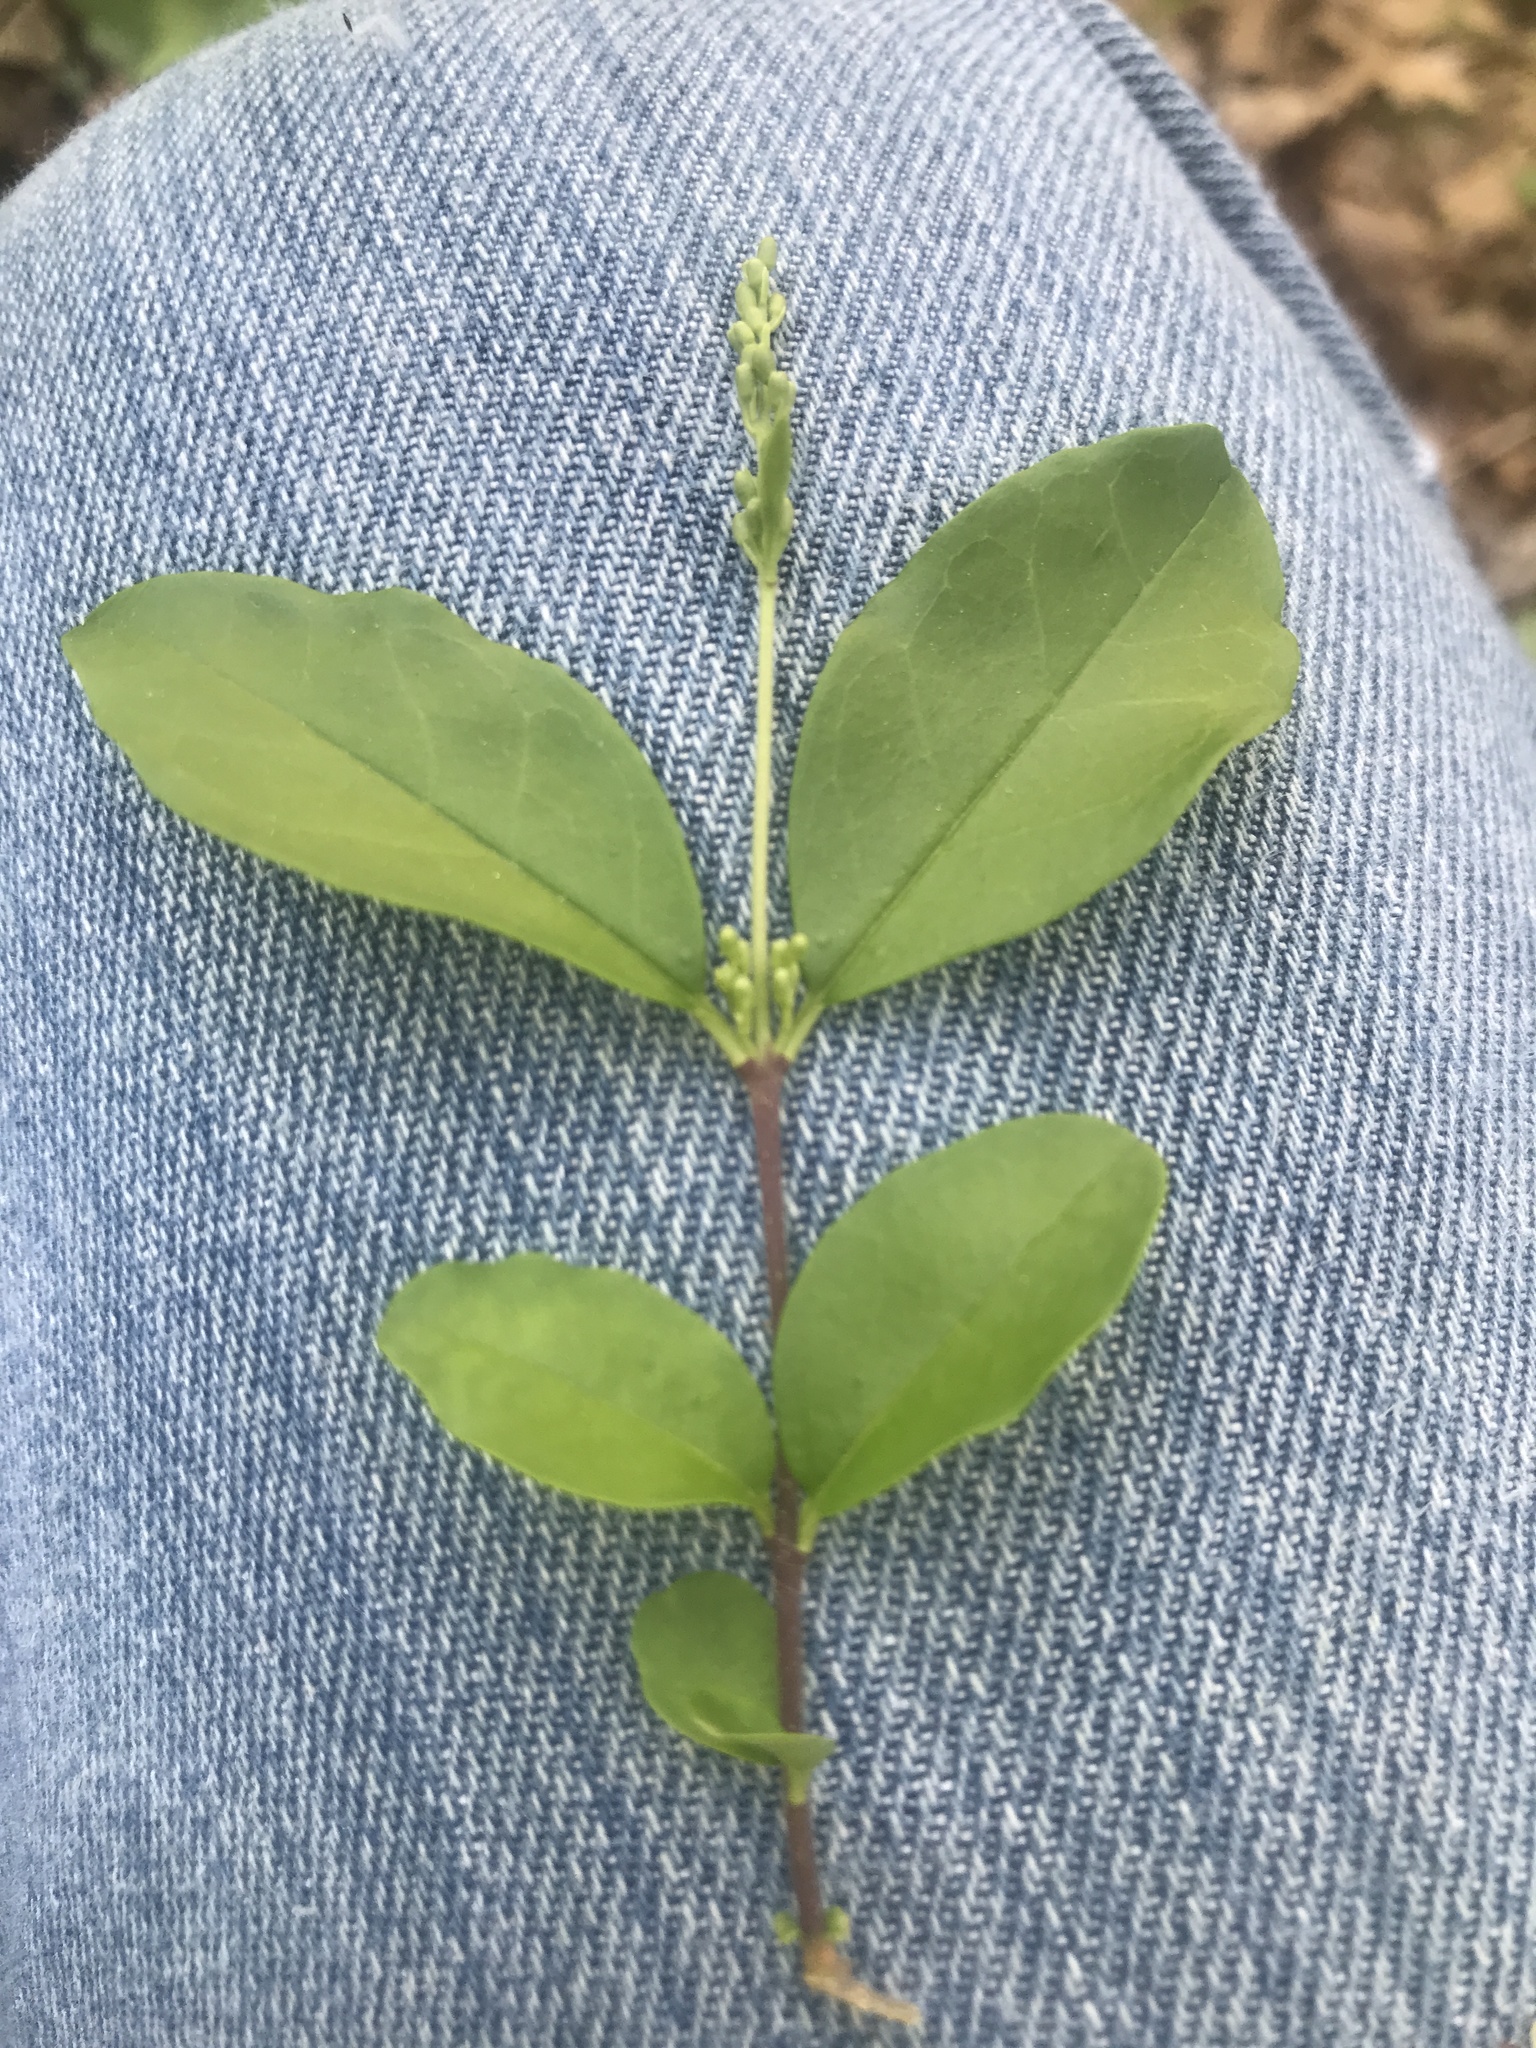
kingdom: Plantae
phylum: Tracheophyta
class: Magnoliopsida
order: Lamiales
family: Oleaceae
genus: Ligustrum
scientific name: Ligustrum sinense
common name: Chinese privet
